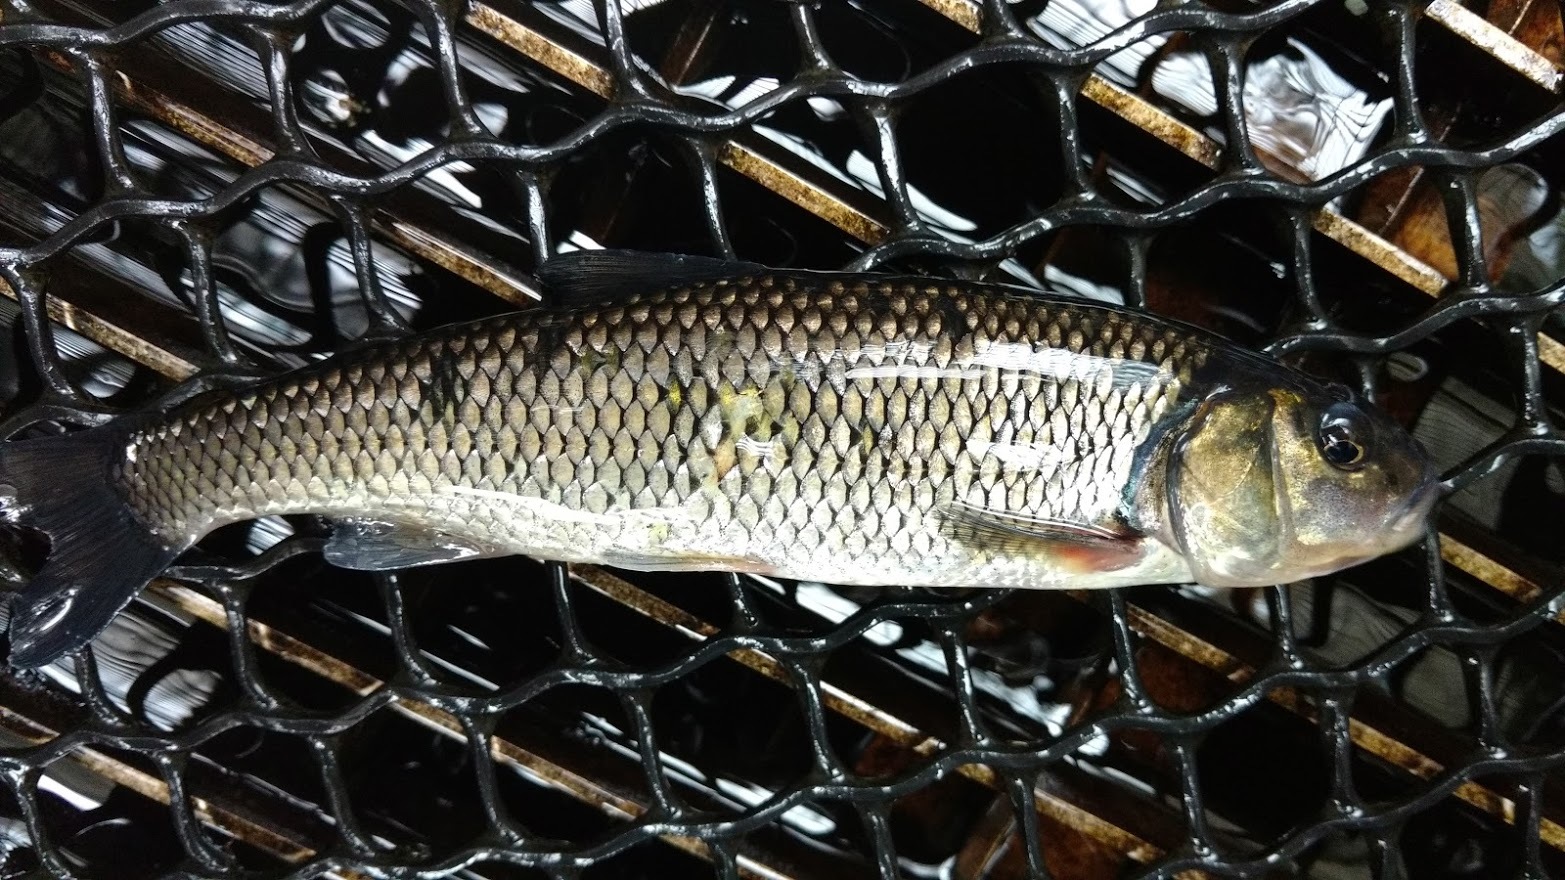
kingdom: Animalia
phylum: Chordata
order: Cypriniformes
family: Cyprinidae
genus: Semotilus
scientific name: Semotilus corporalis
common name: Fallfish
